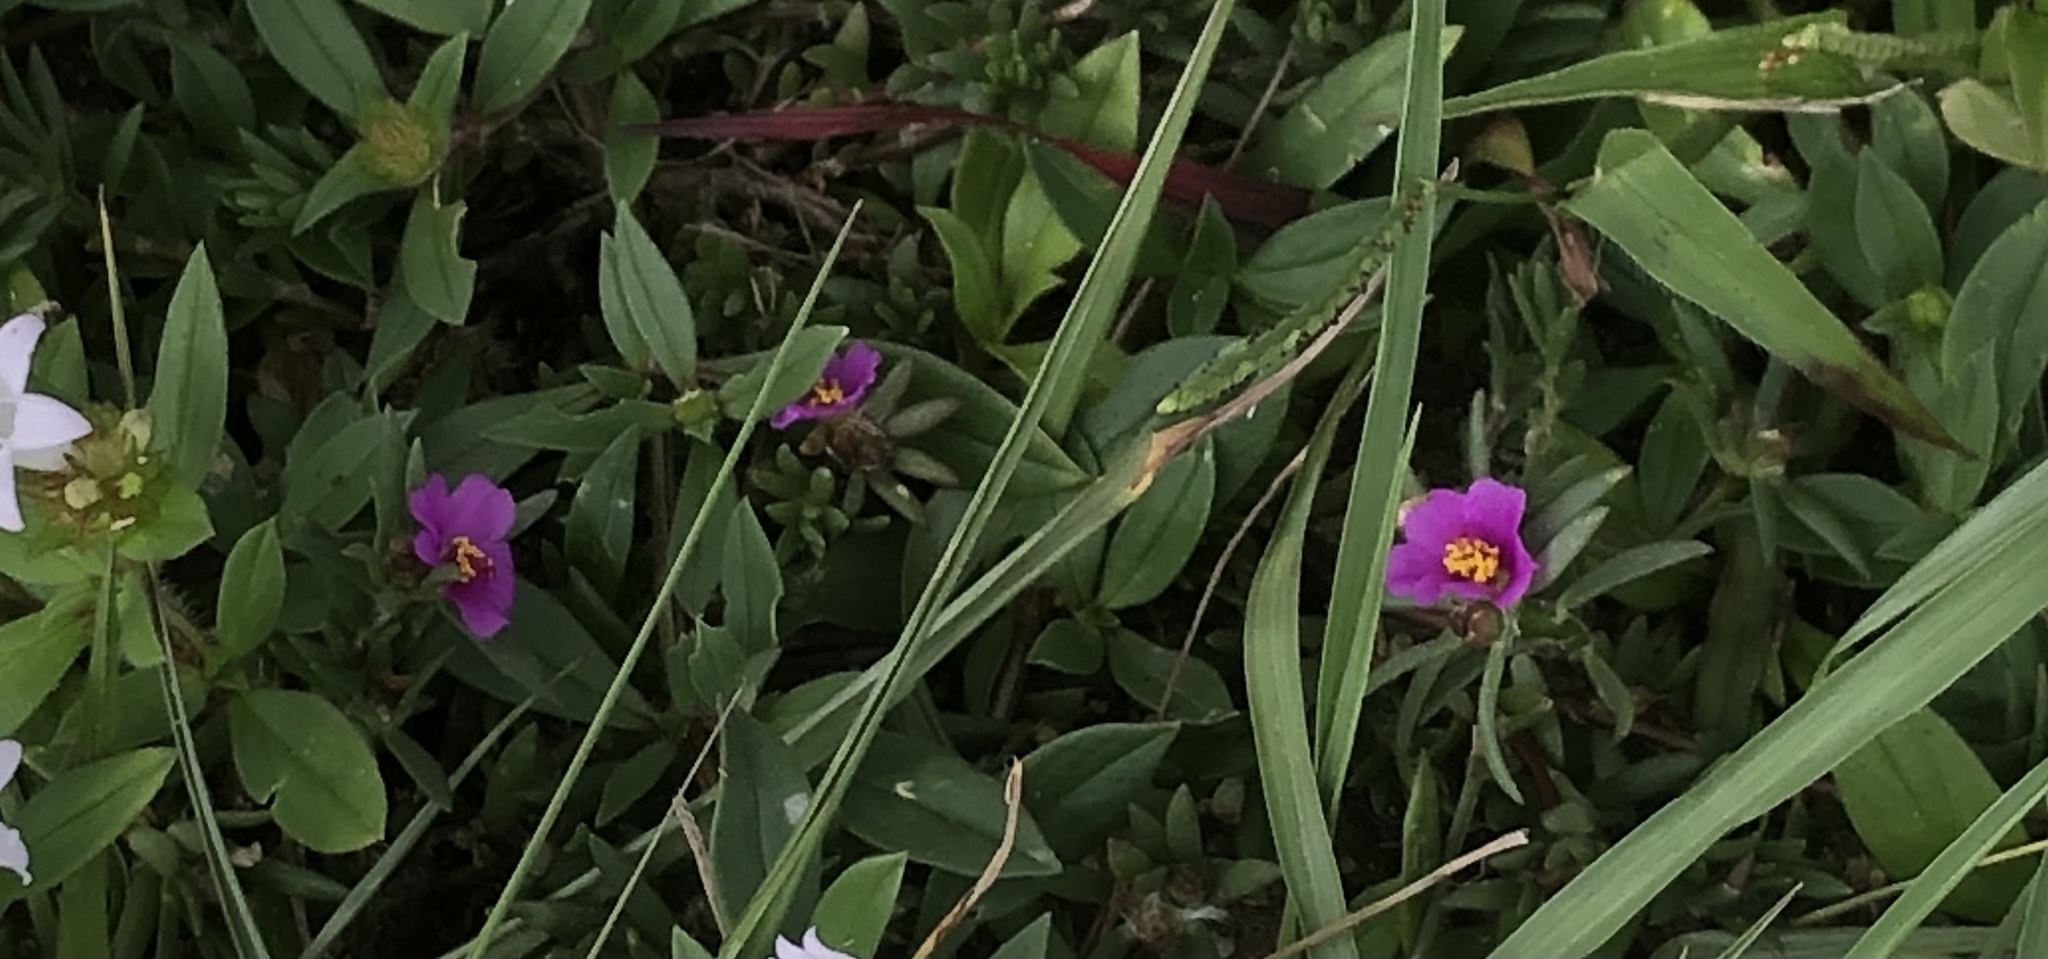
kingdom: Plantae
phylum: Tracheophyta
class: Magnoliopsida
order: Caryophyllales
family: Portulacaceae
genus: Portulaca
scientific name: Portulaca pilosa
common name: Kiss me quick
